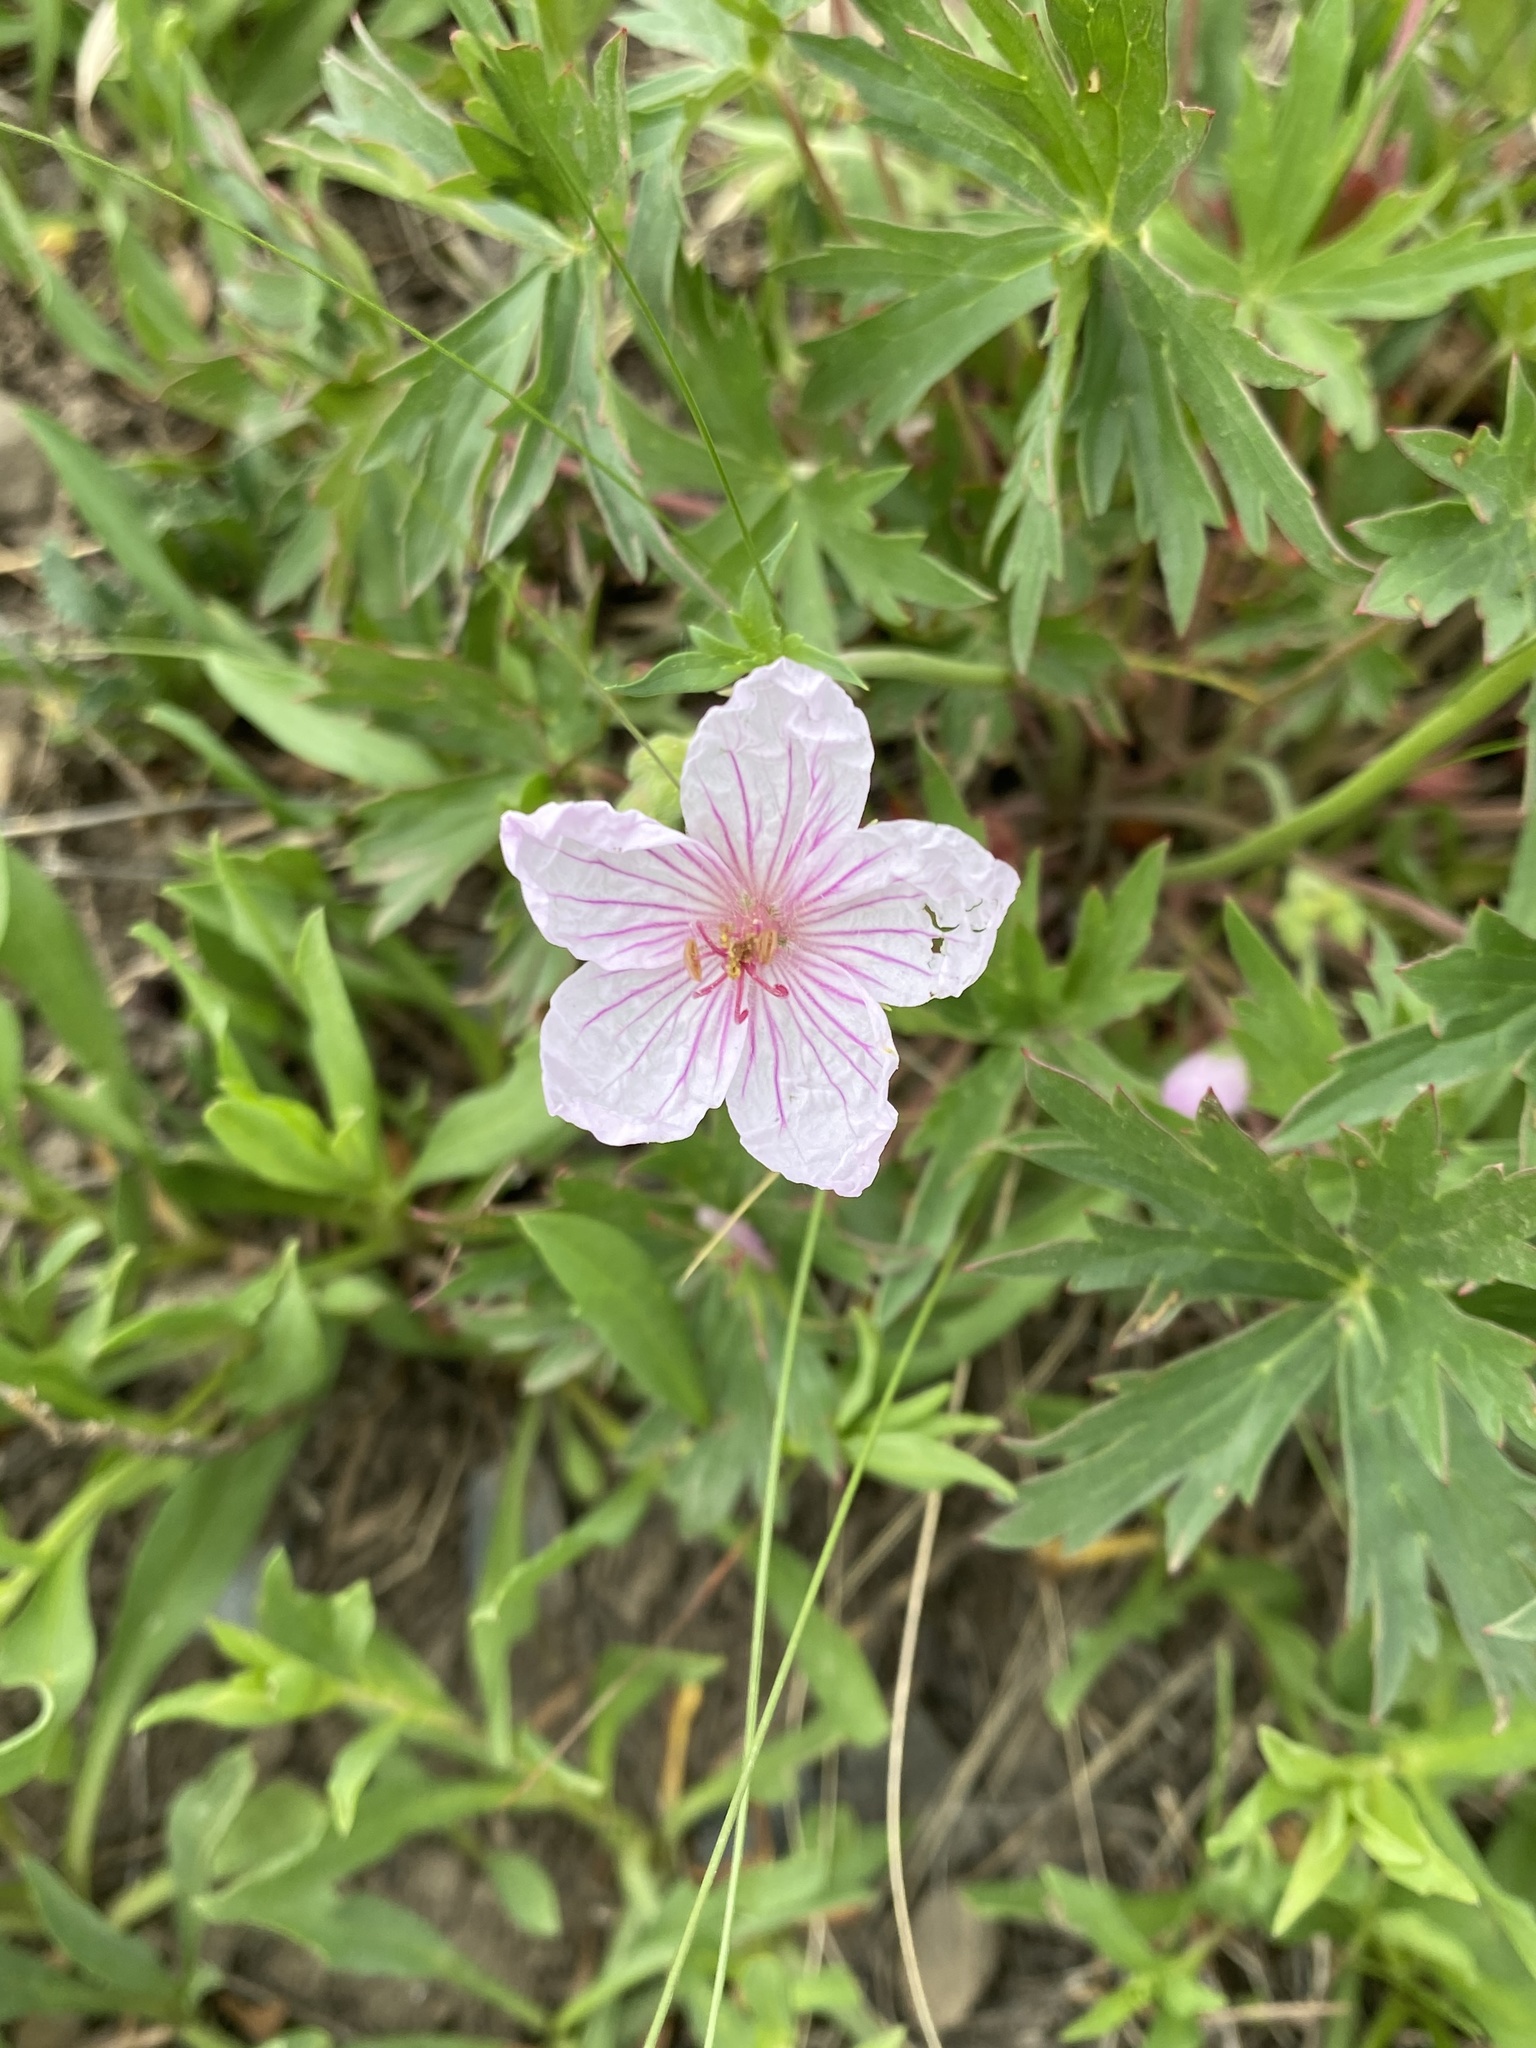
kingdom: Plantae
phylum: Tracheophyta
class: Magnoliopsida
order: Geraniales
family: Geraniaceae
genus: Geranium
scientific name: Geranium viscosissimum
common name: Purple geranium
